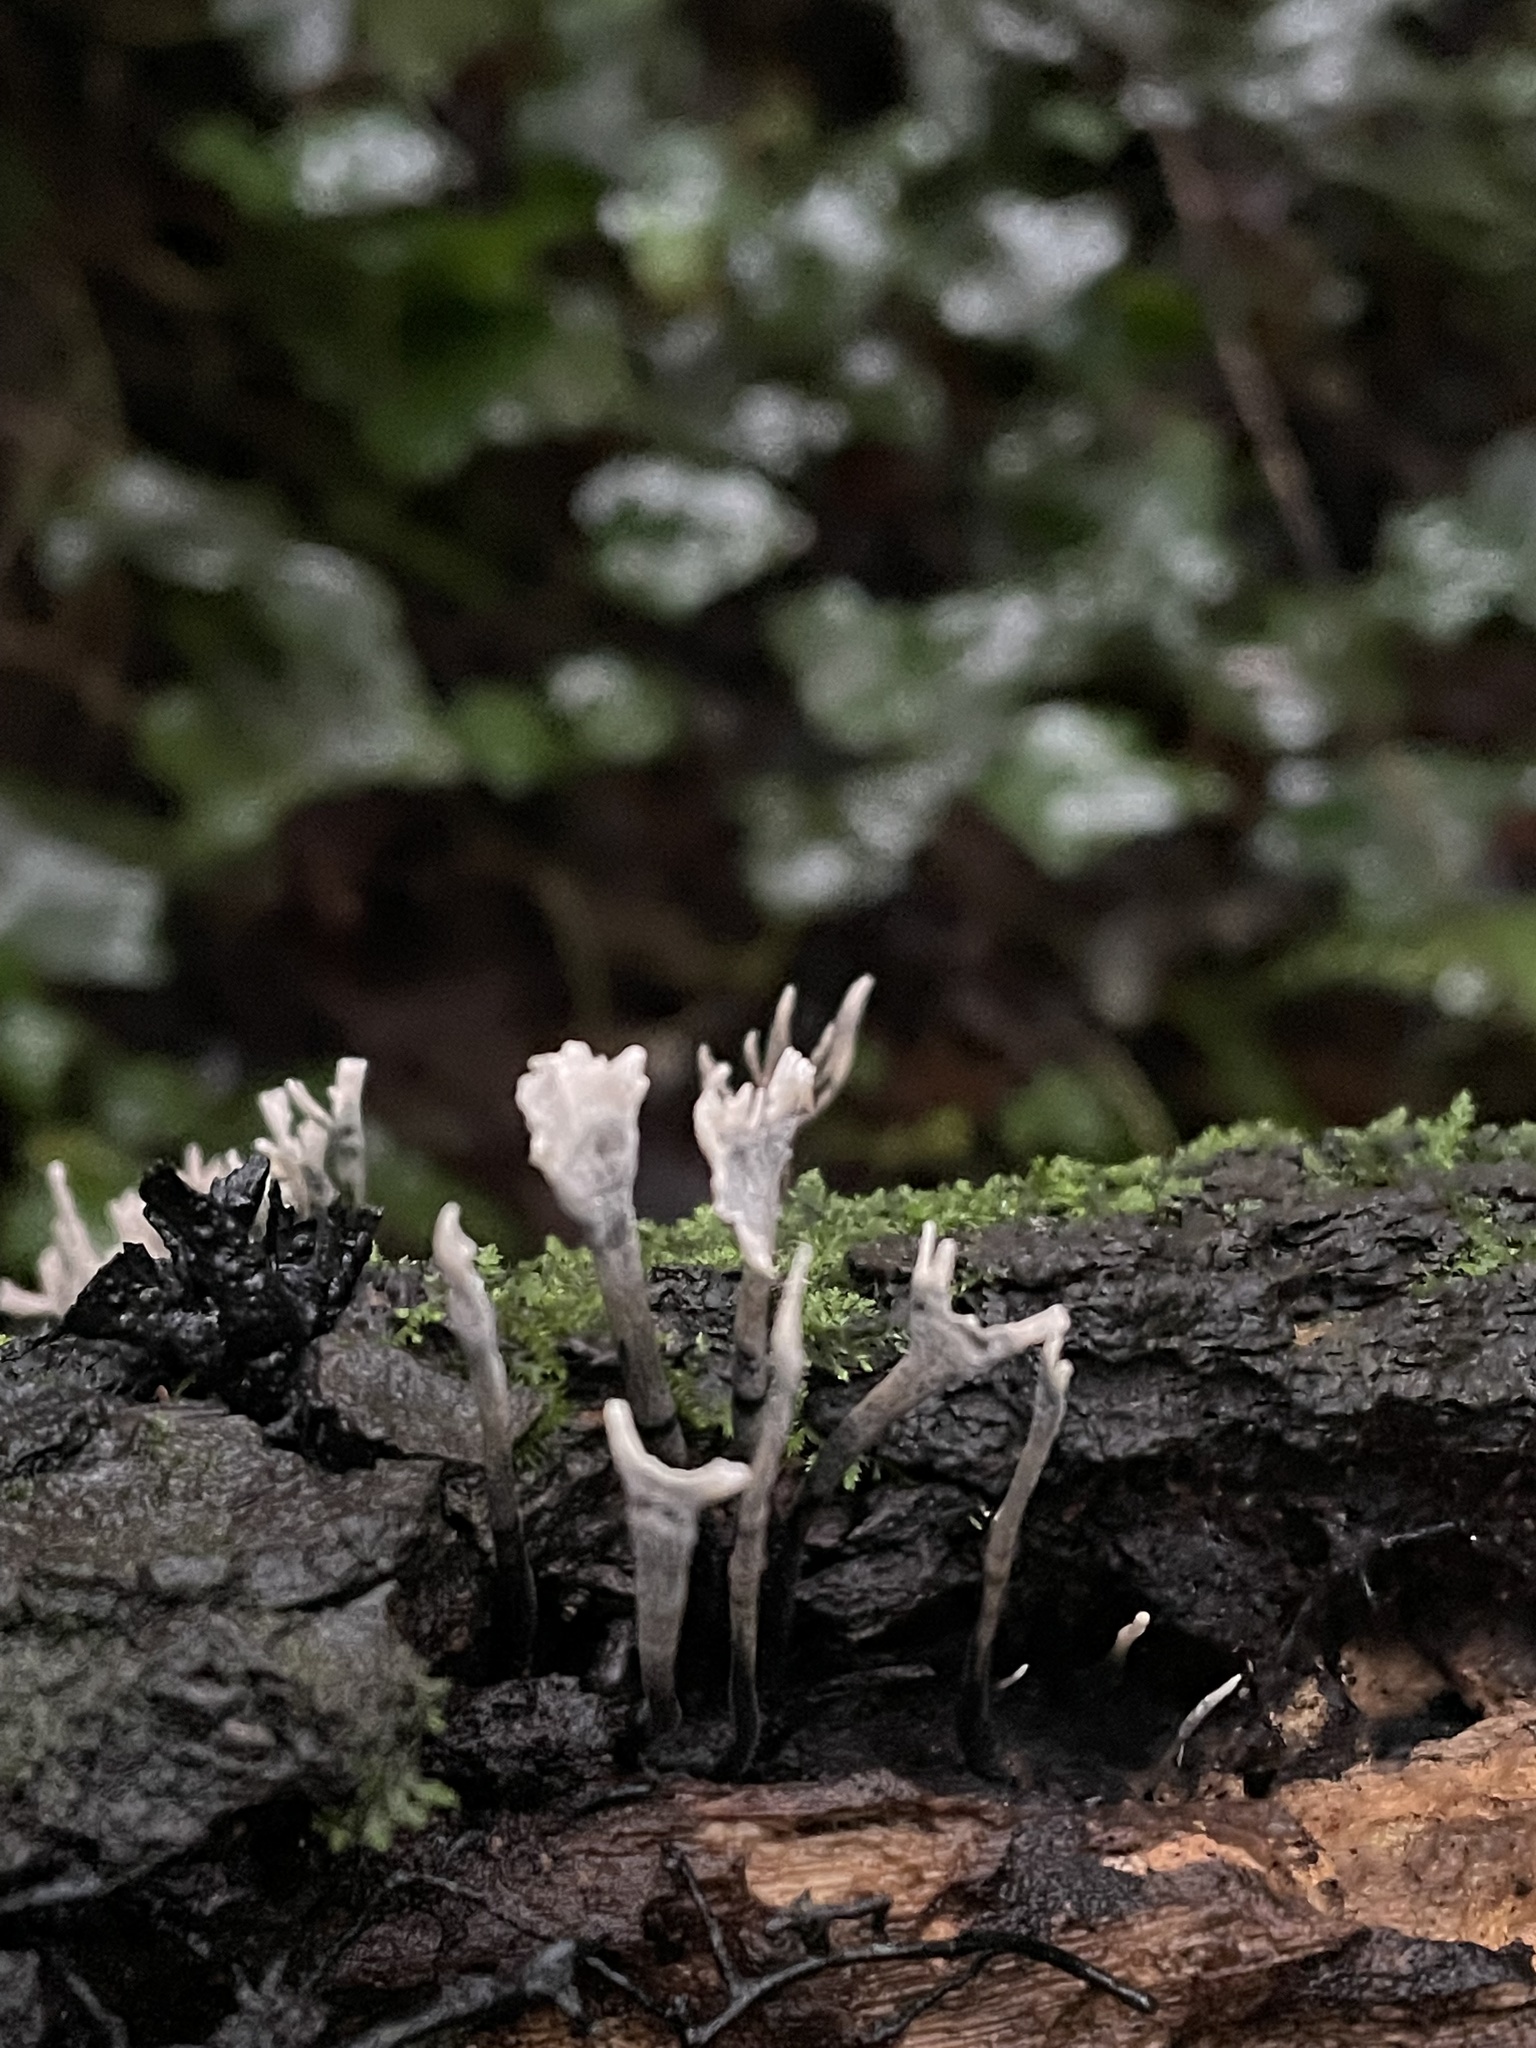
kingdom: Fungi
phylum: Ascomycota
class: Sordariomycetes
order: Xylariales
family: Xylariaceae
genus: Xylaria
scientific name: Xylaria hypoxylon
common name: Candle-snuff fungus
